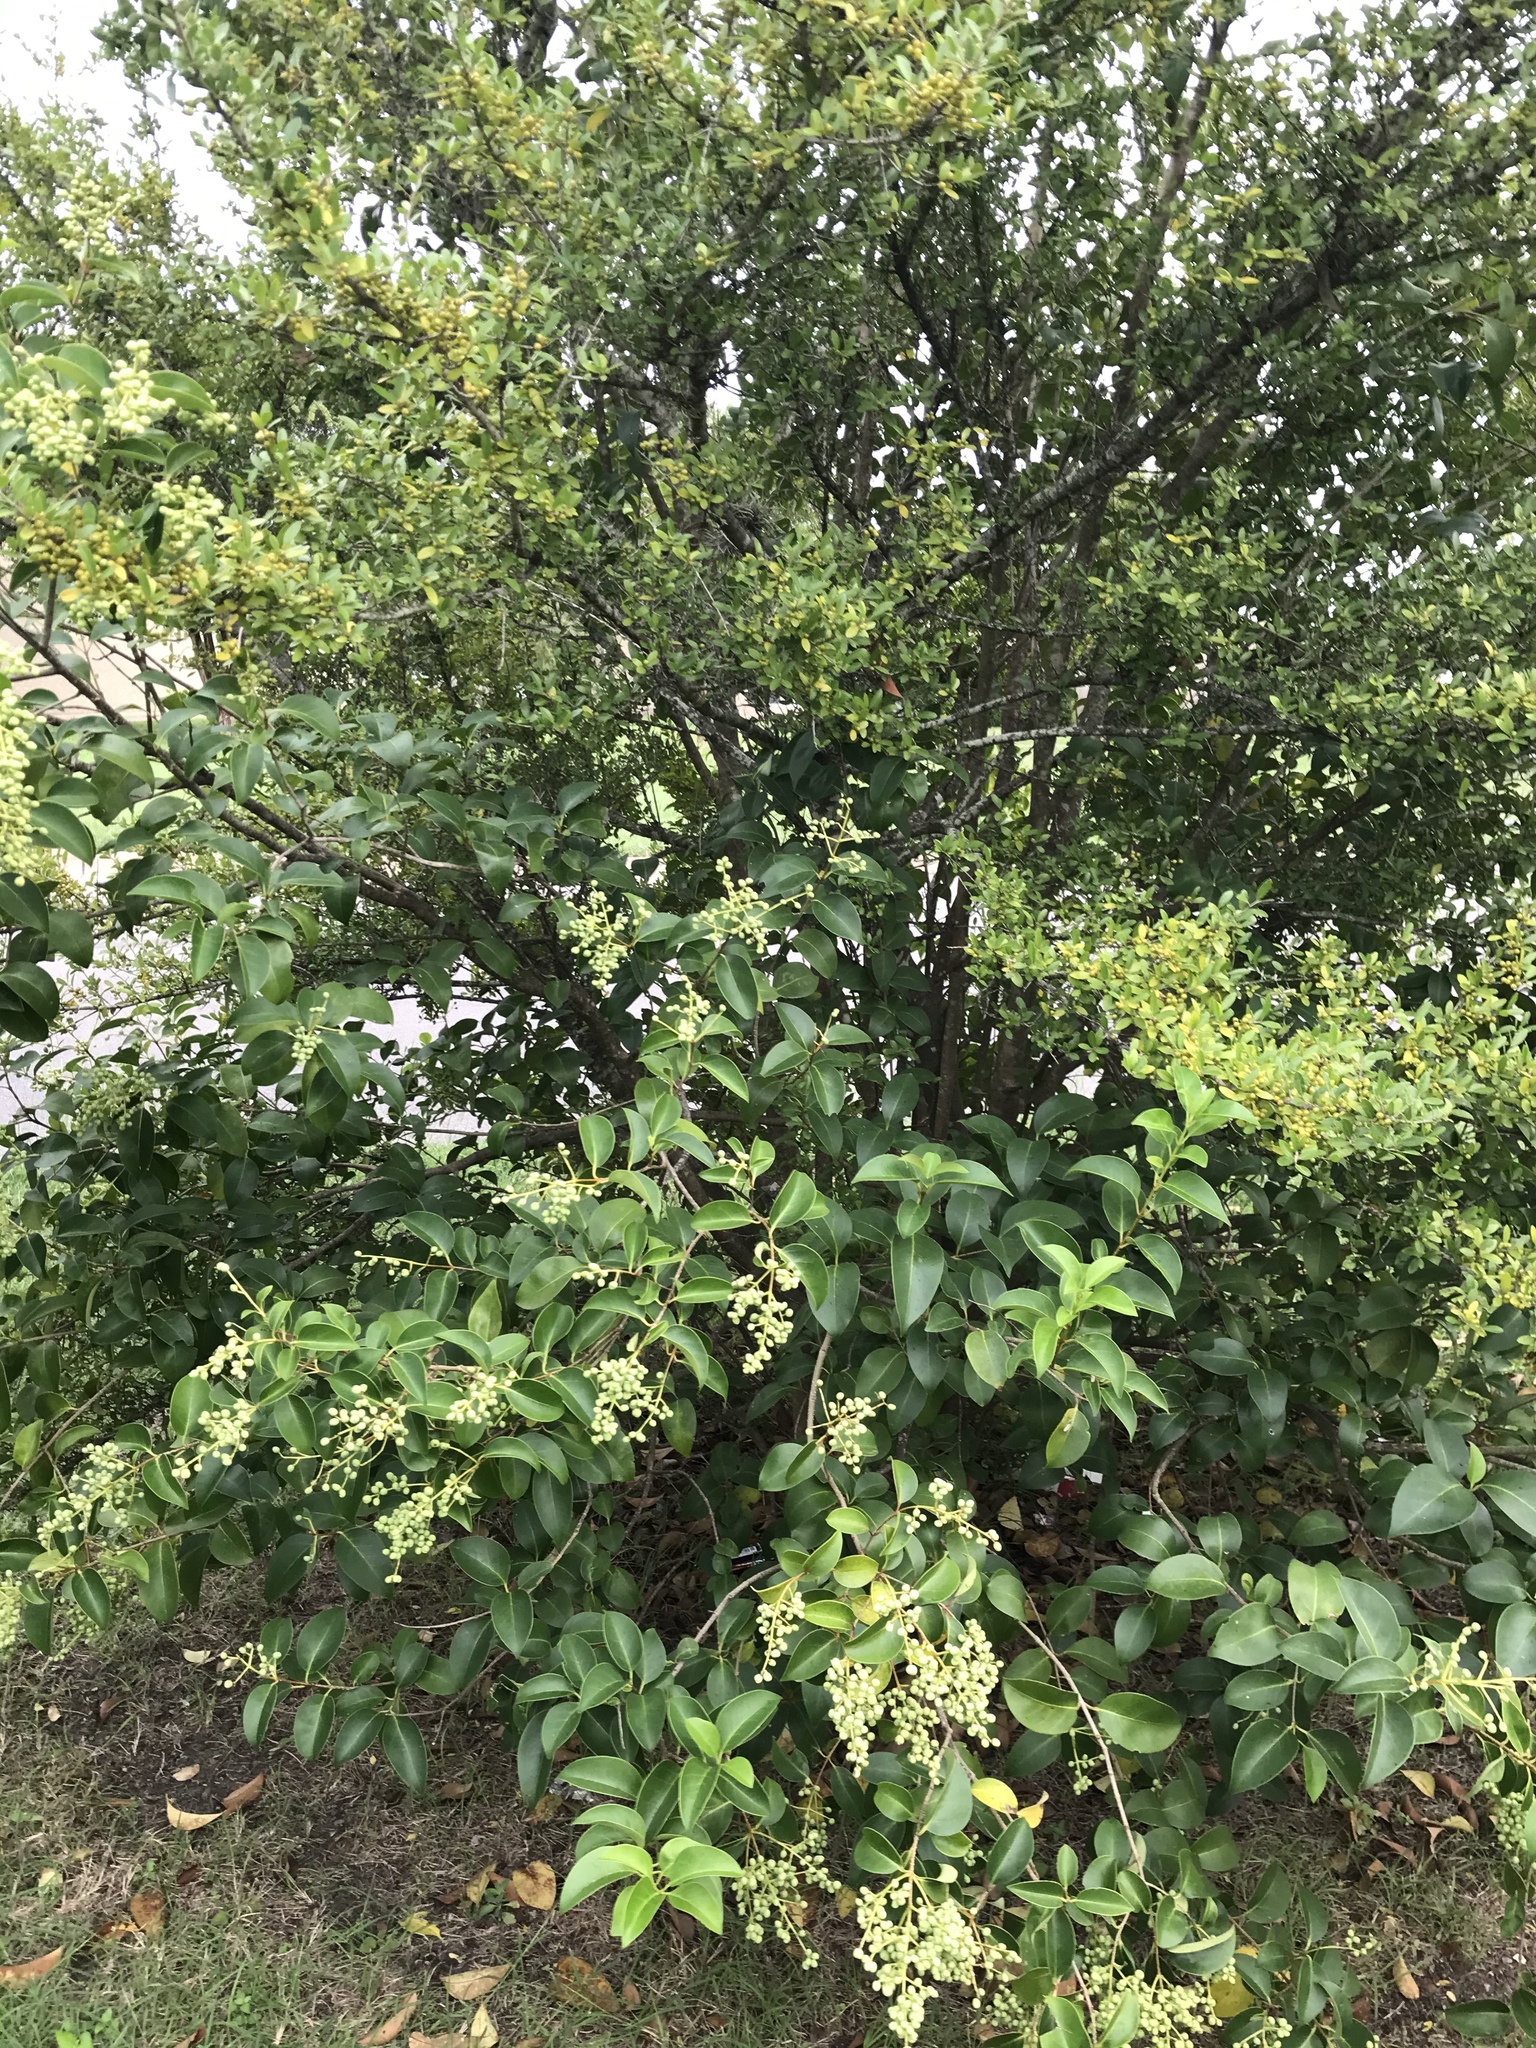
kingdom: Plantae
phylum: Tracheophyta
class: Magnoliopsida
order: Lamiales
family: Oleaceae
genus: Ligustrum
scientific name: Ligustrum lucidum
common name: Glossy privet
